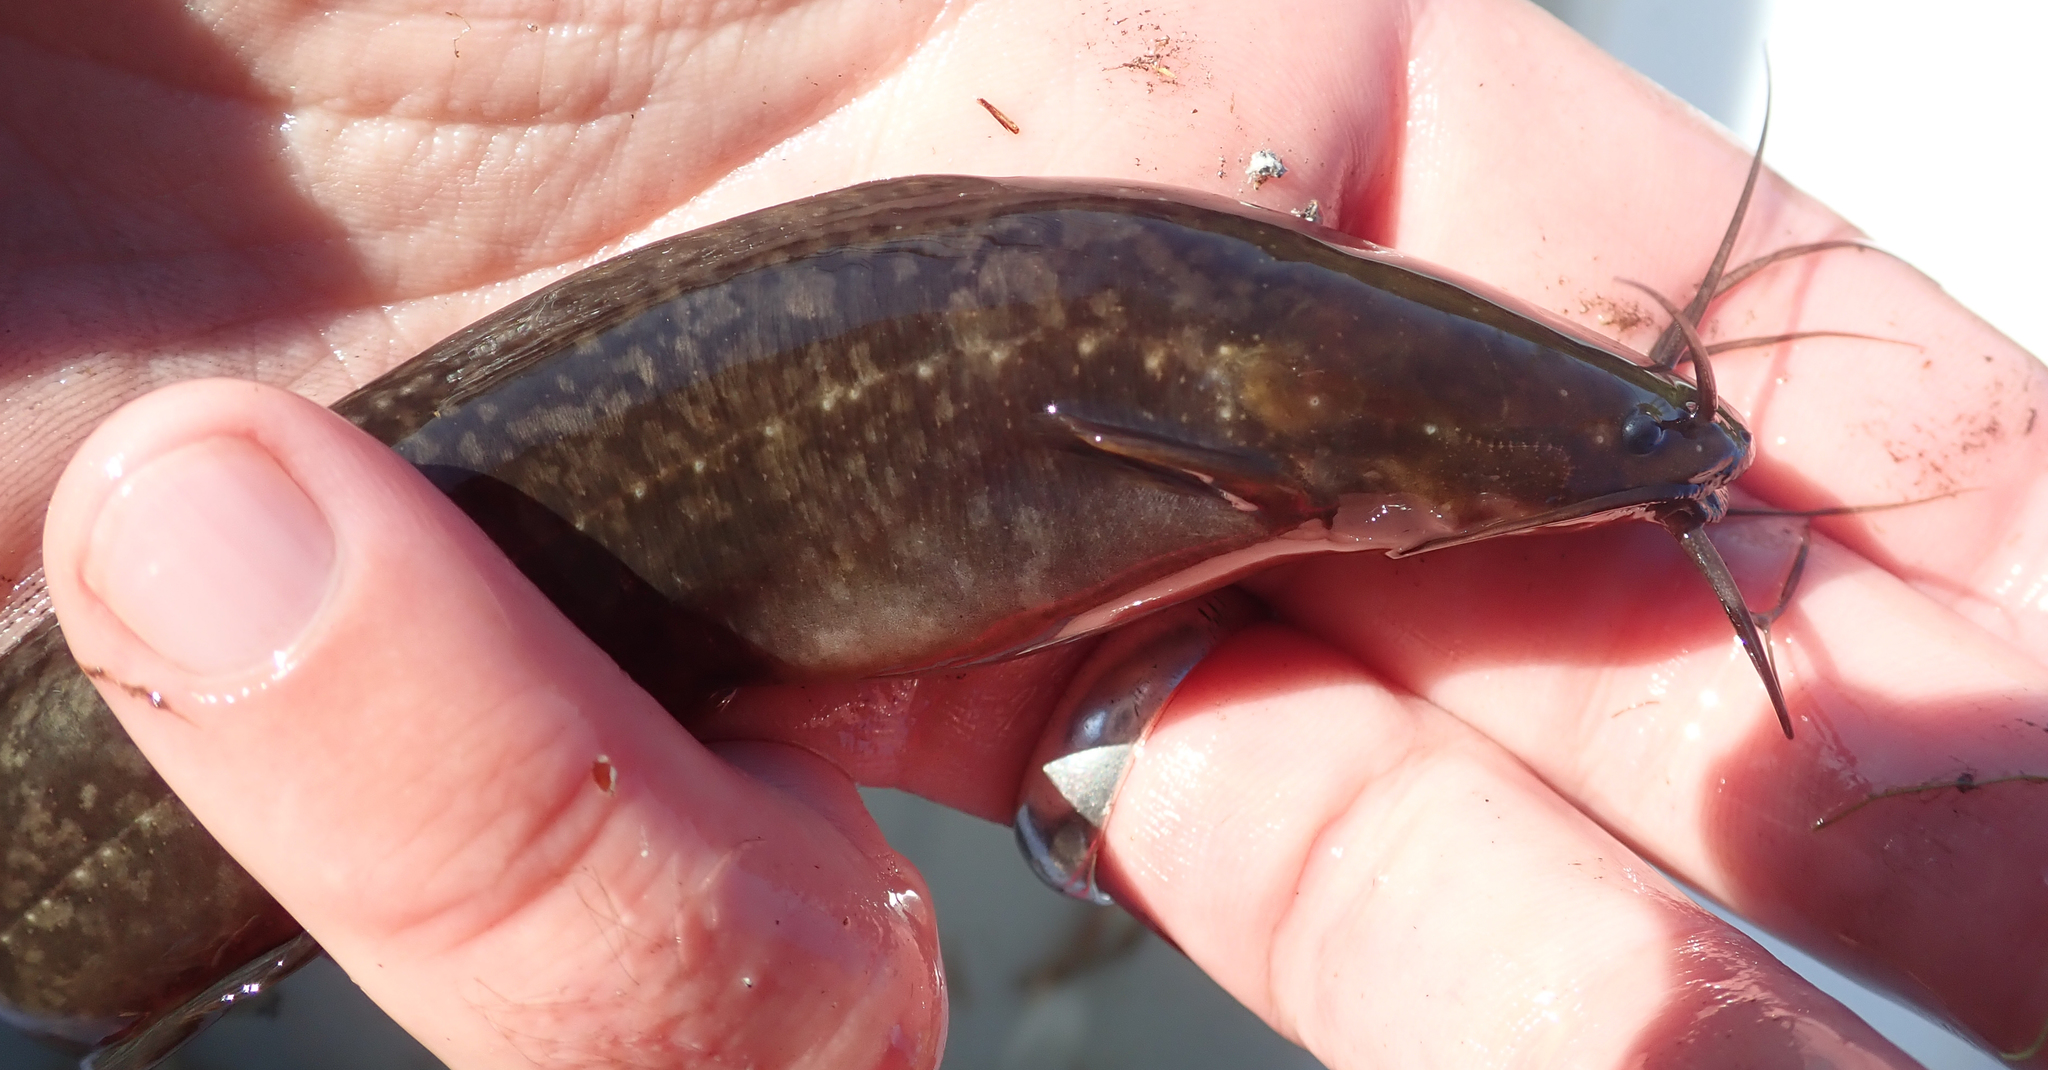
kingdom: Animalia
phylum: Chordata
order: Siluriformes
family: Clariidae
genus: Clarias
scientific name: Clarias theodorae
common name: Snake catfish
